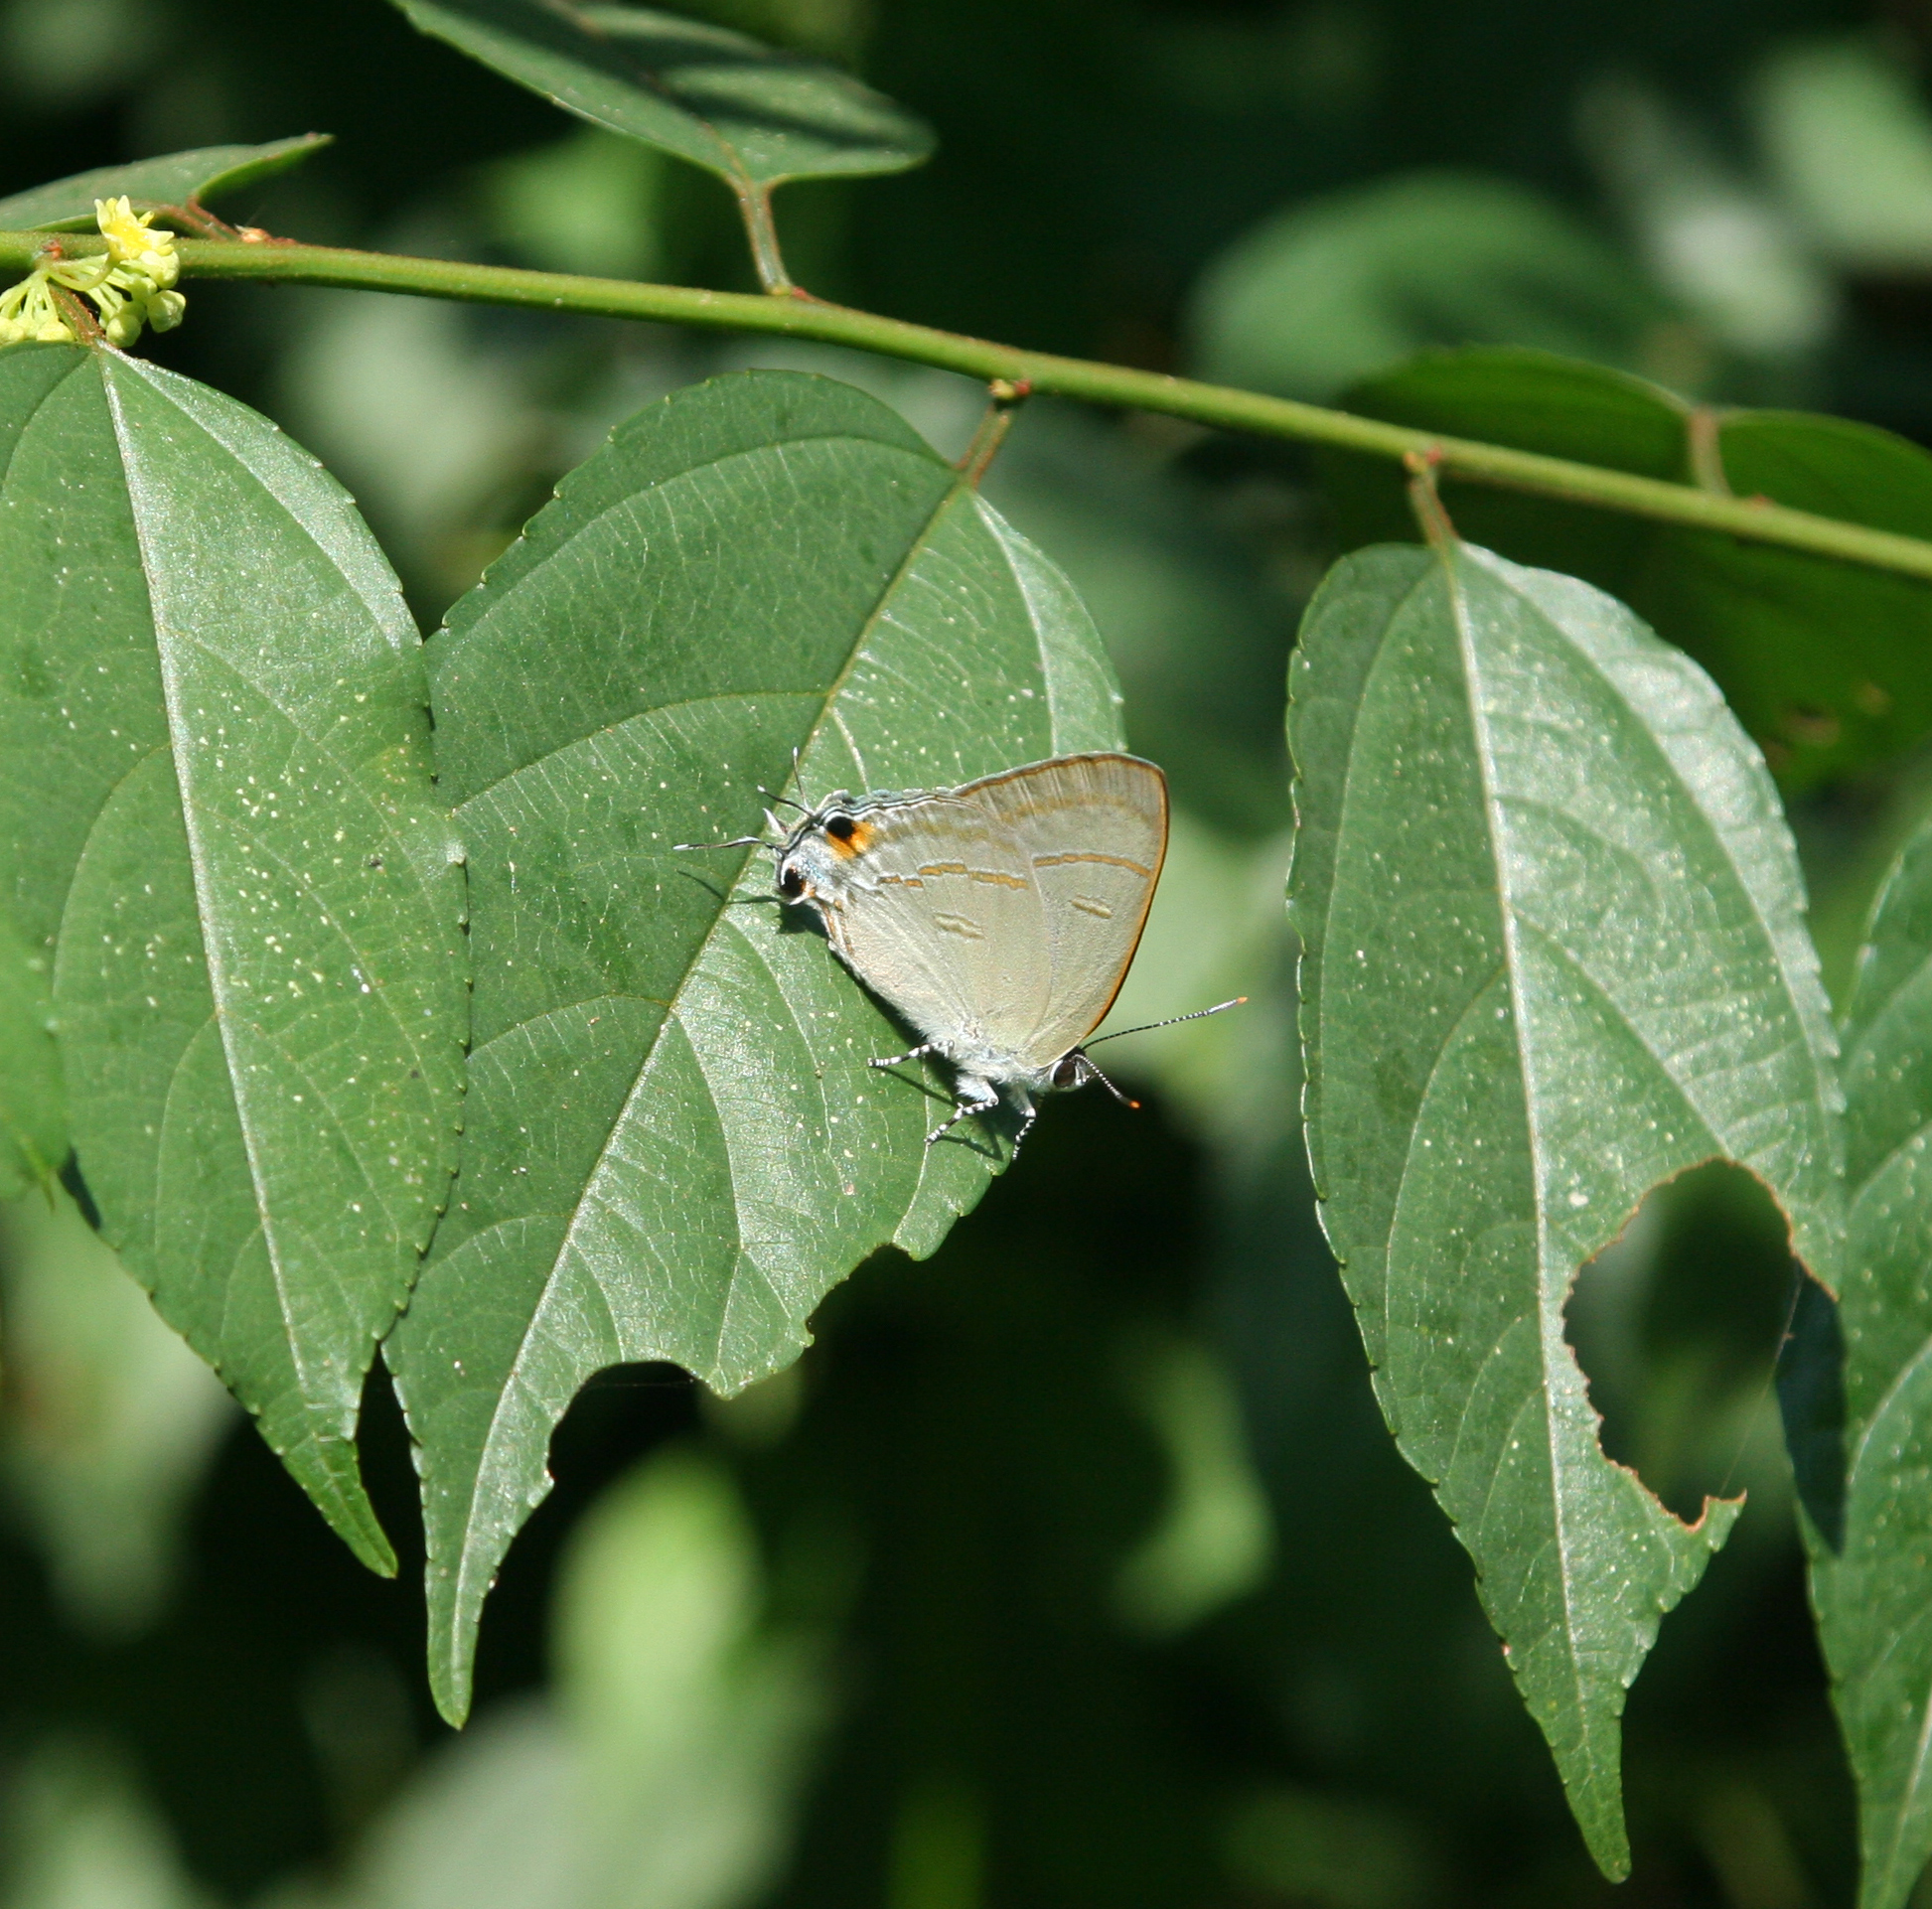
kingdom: Animalia
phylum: Arthropoda
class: Insecta
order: Lepidoptera
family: Lycaenidae
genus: Hypolycaena
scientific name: Hypolycaena erylus
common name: Common tit
